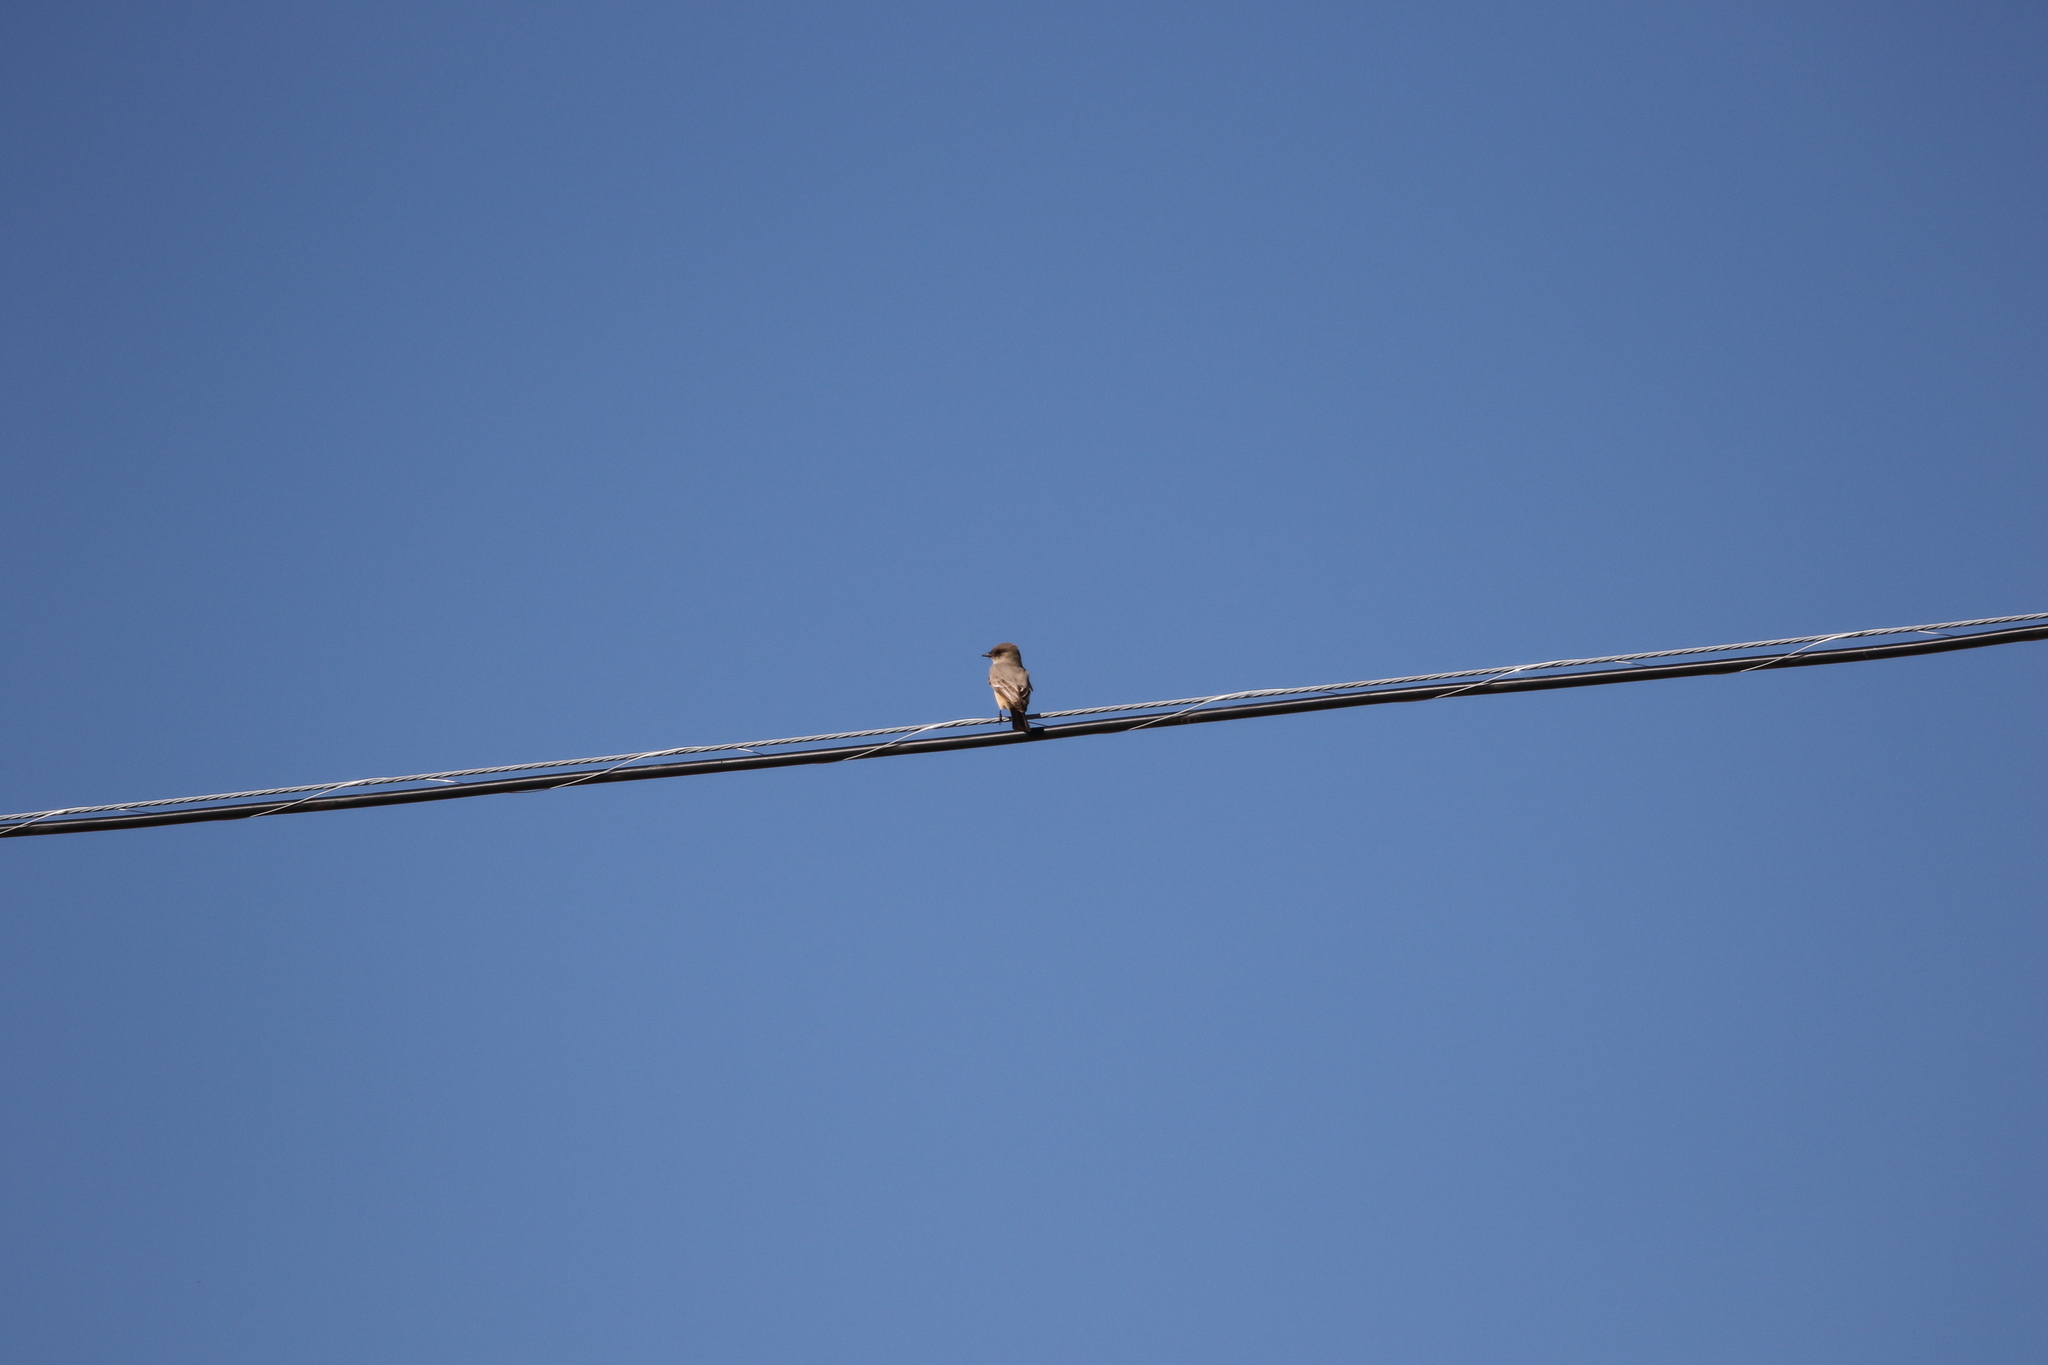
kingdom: Animalia
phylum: Chordata
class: Aves
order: Passeriformes
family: Tyrannidae
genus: Sayornis
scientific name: Sayornis saya
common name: Say's phoebe
